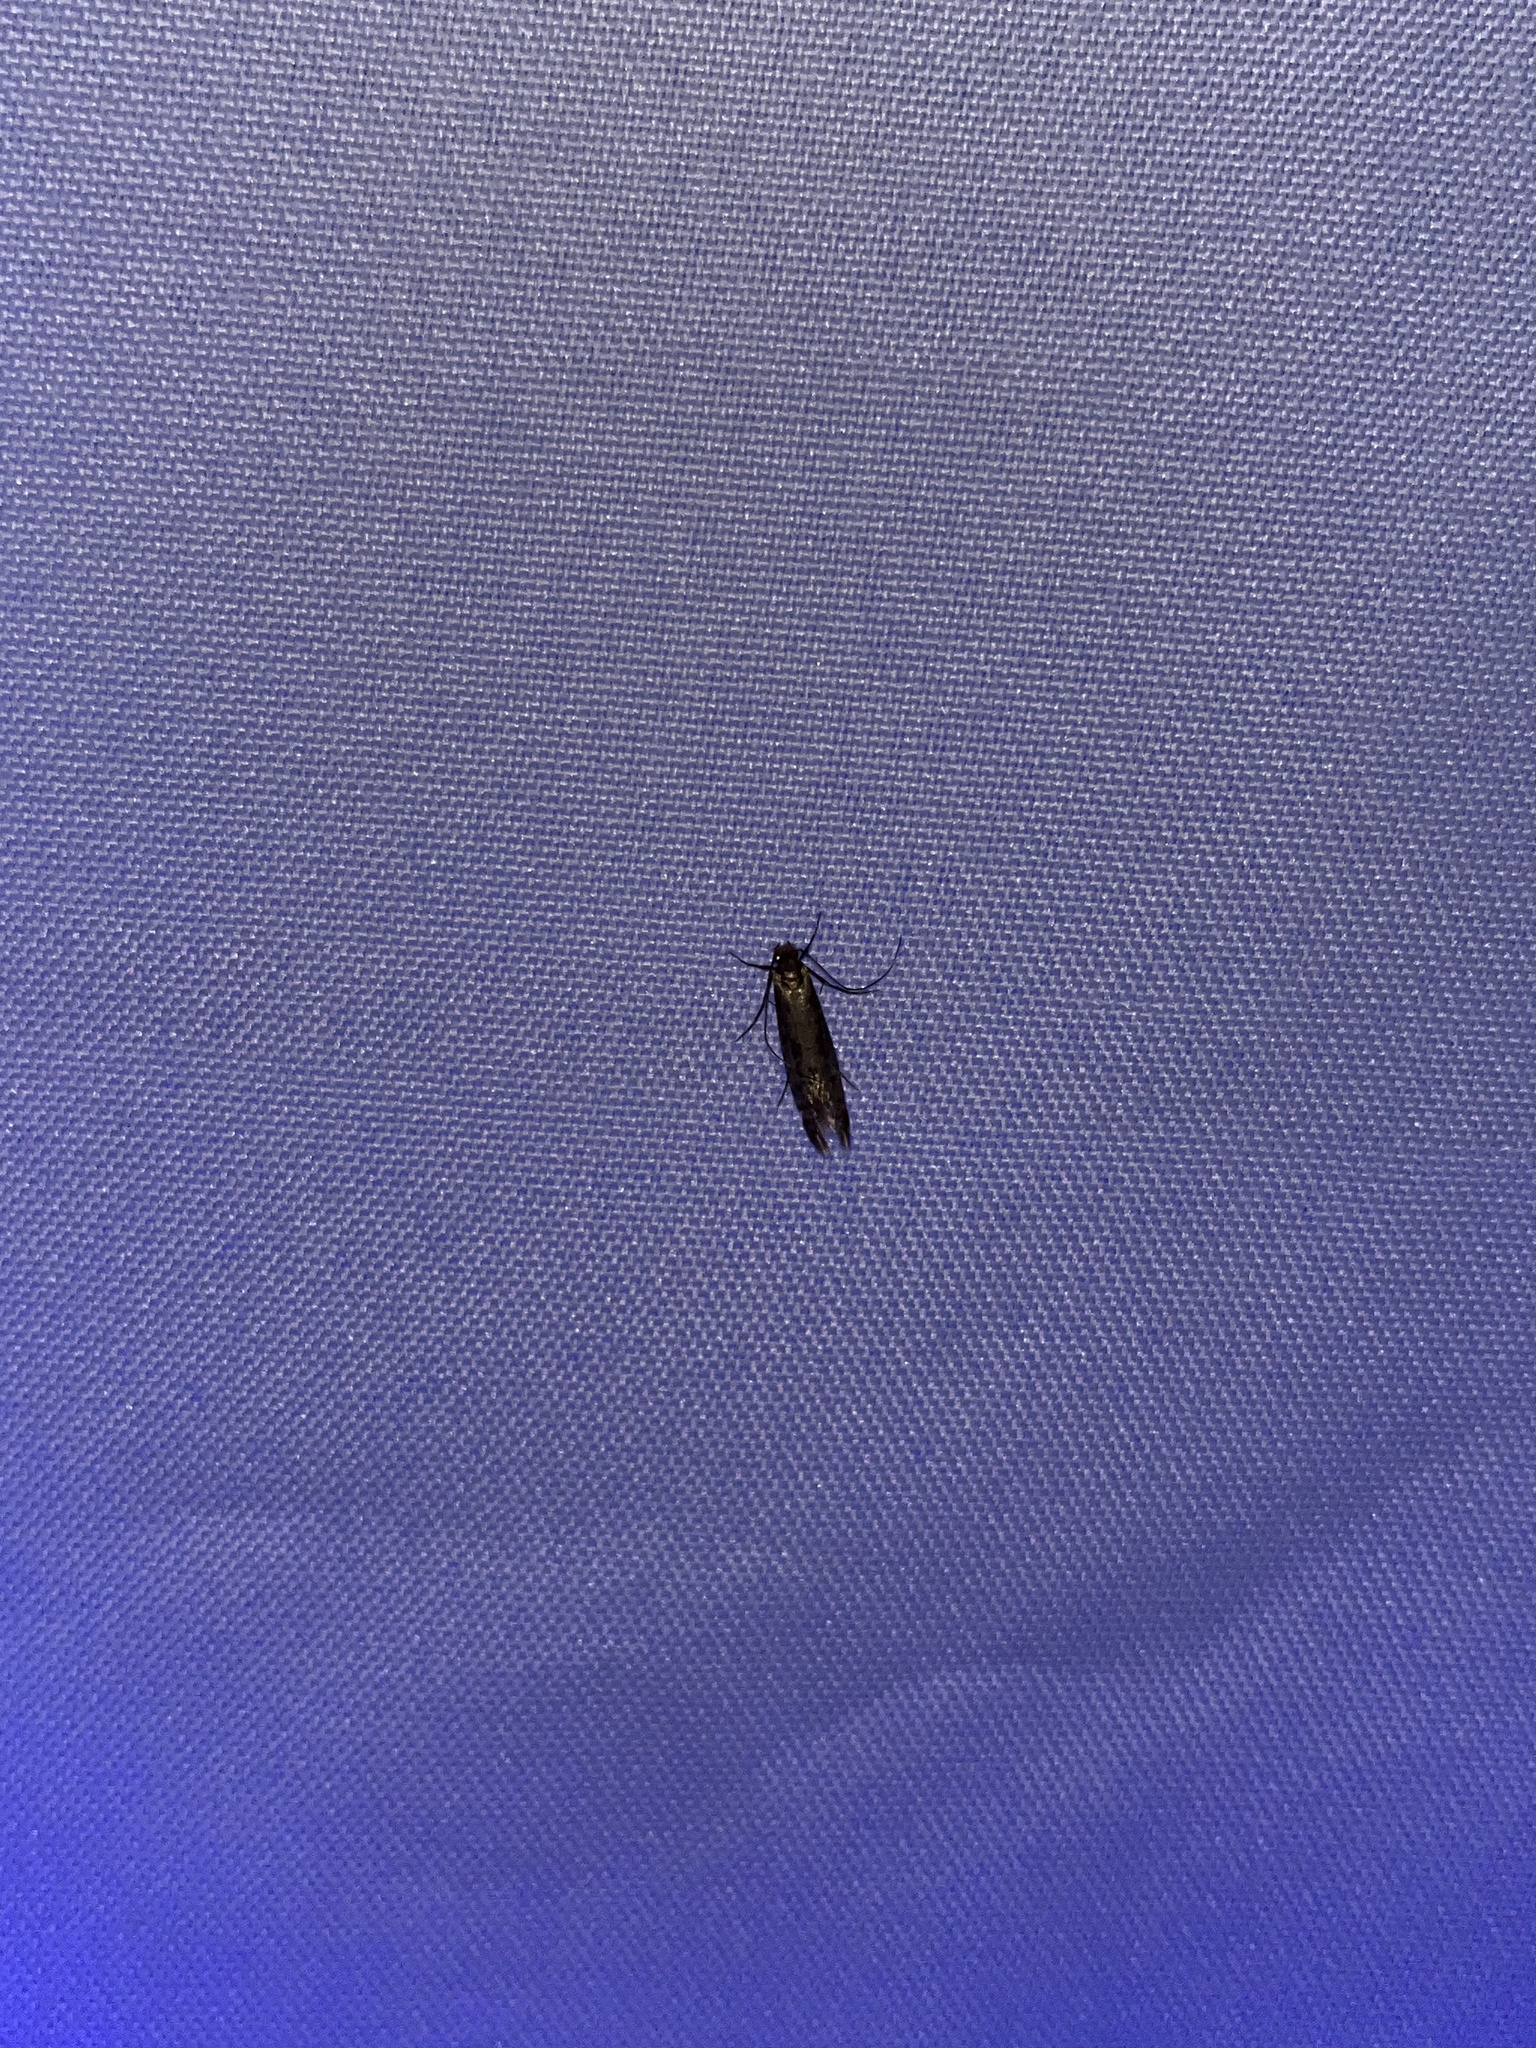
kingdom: Animalia
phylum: Arthropoda
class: Insecta
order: Lepidoptera
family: Tineidae
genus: Tinea
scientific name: Tinea pellionella
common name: Case-making clothes moth
